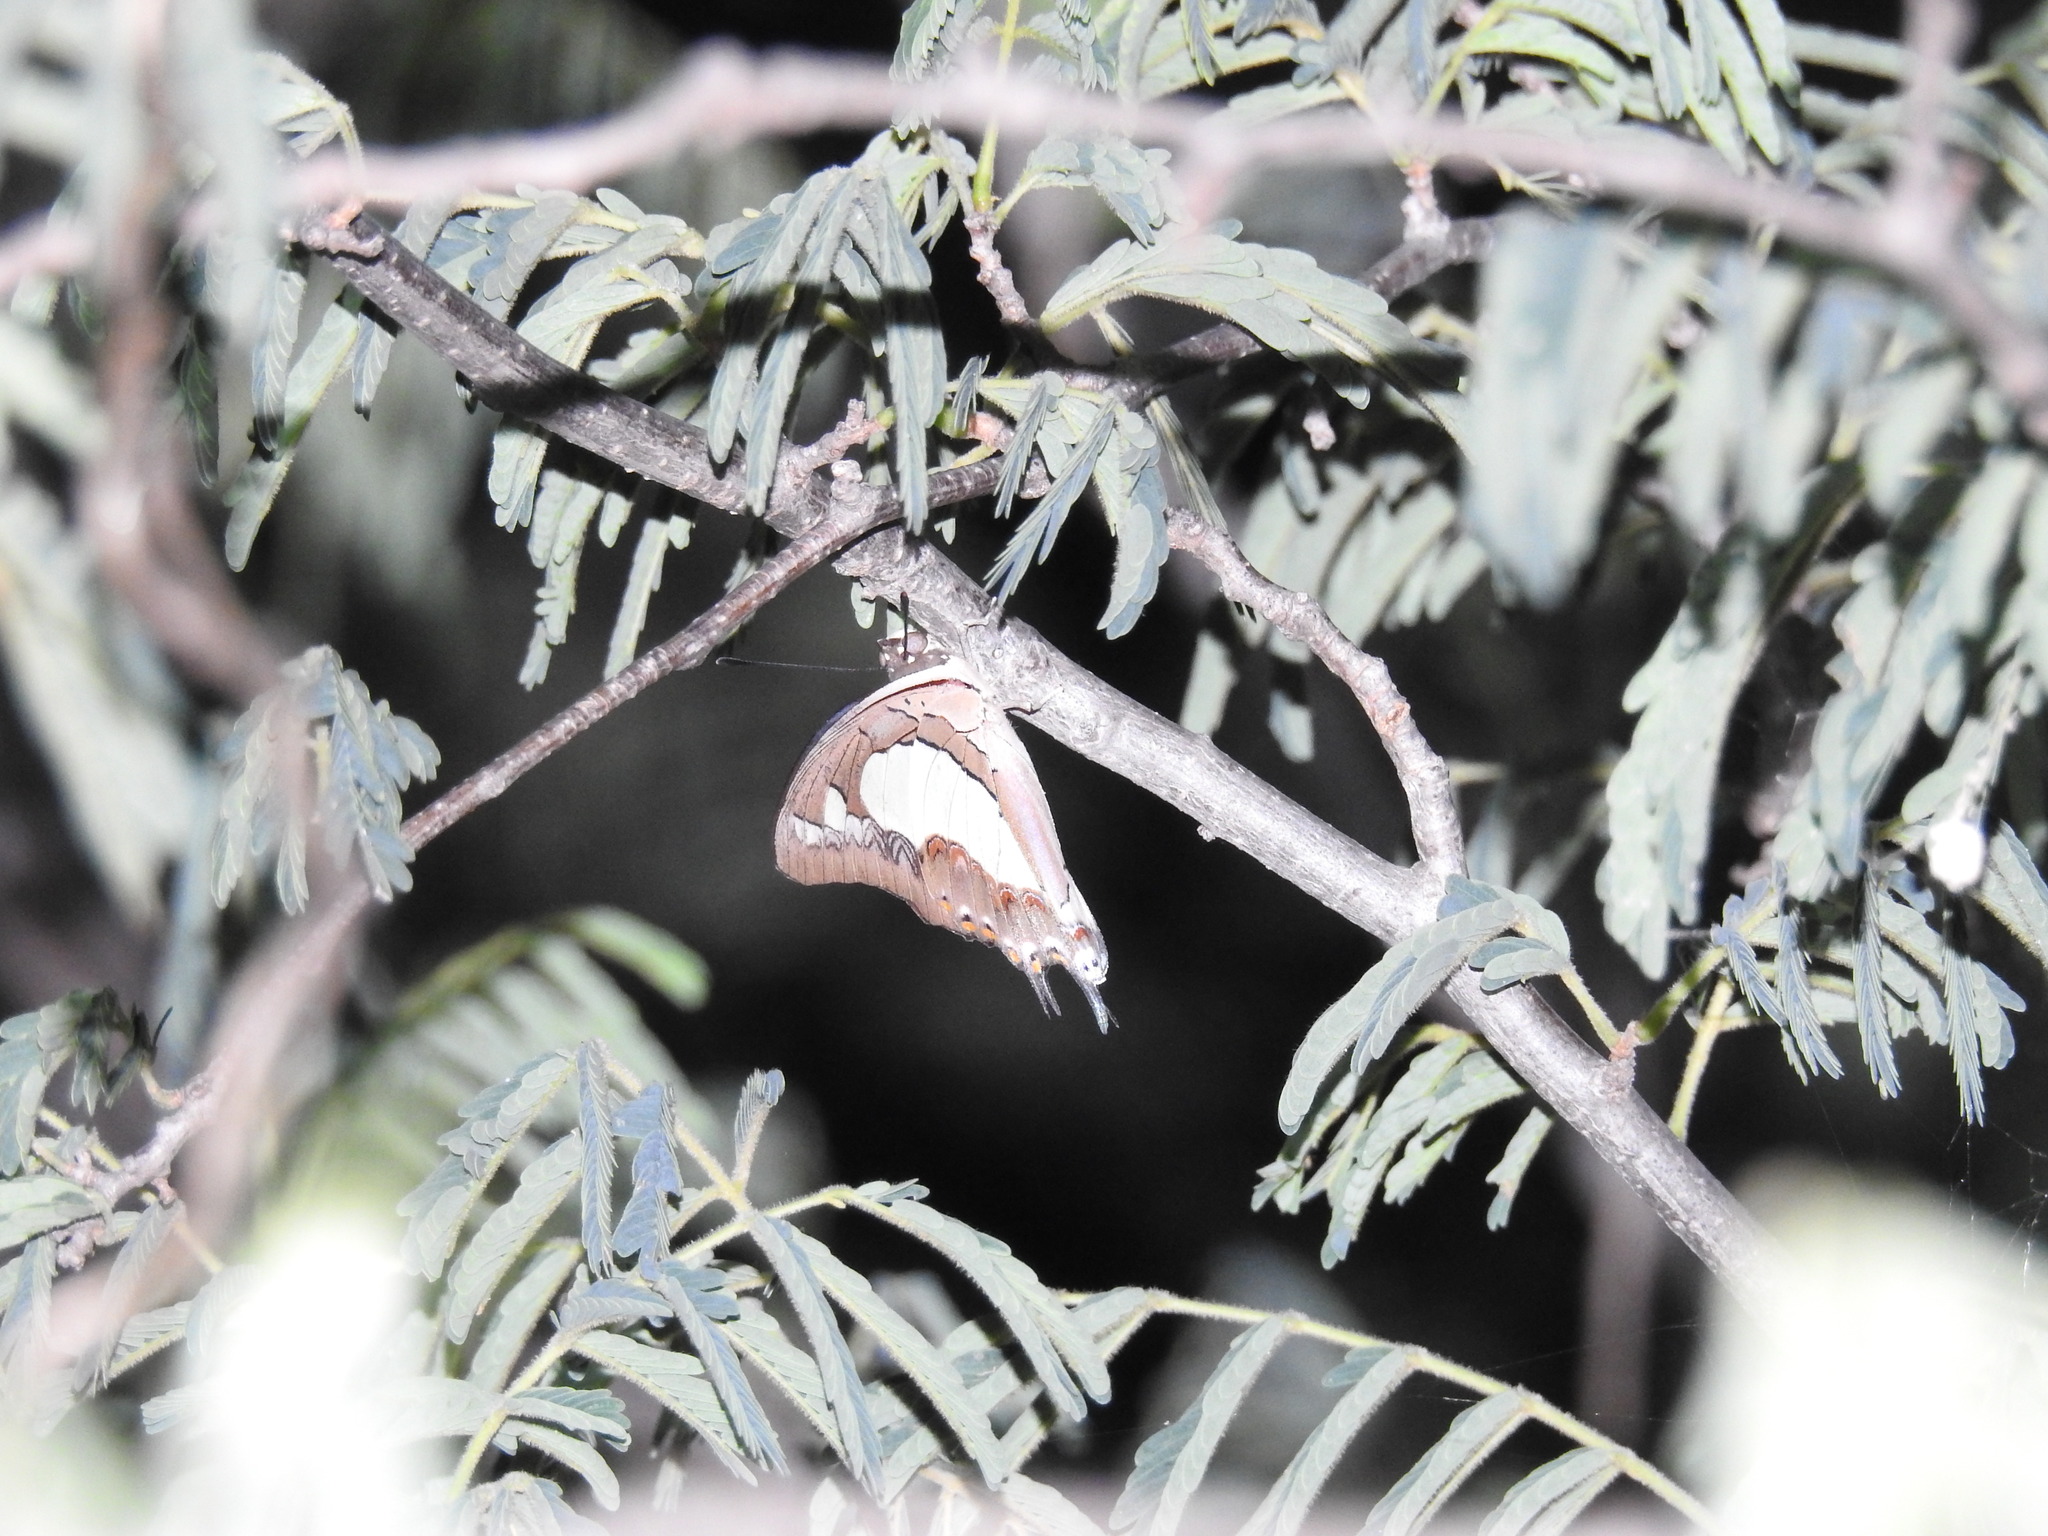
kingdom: Animalia
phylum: Arthropoda
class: Insecta
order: Lepidoptera
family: Nymphalidae
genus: Polyura
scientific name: Polyura agrarius
